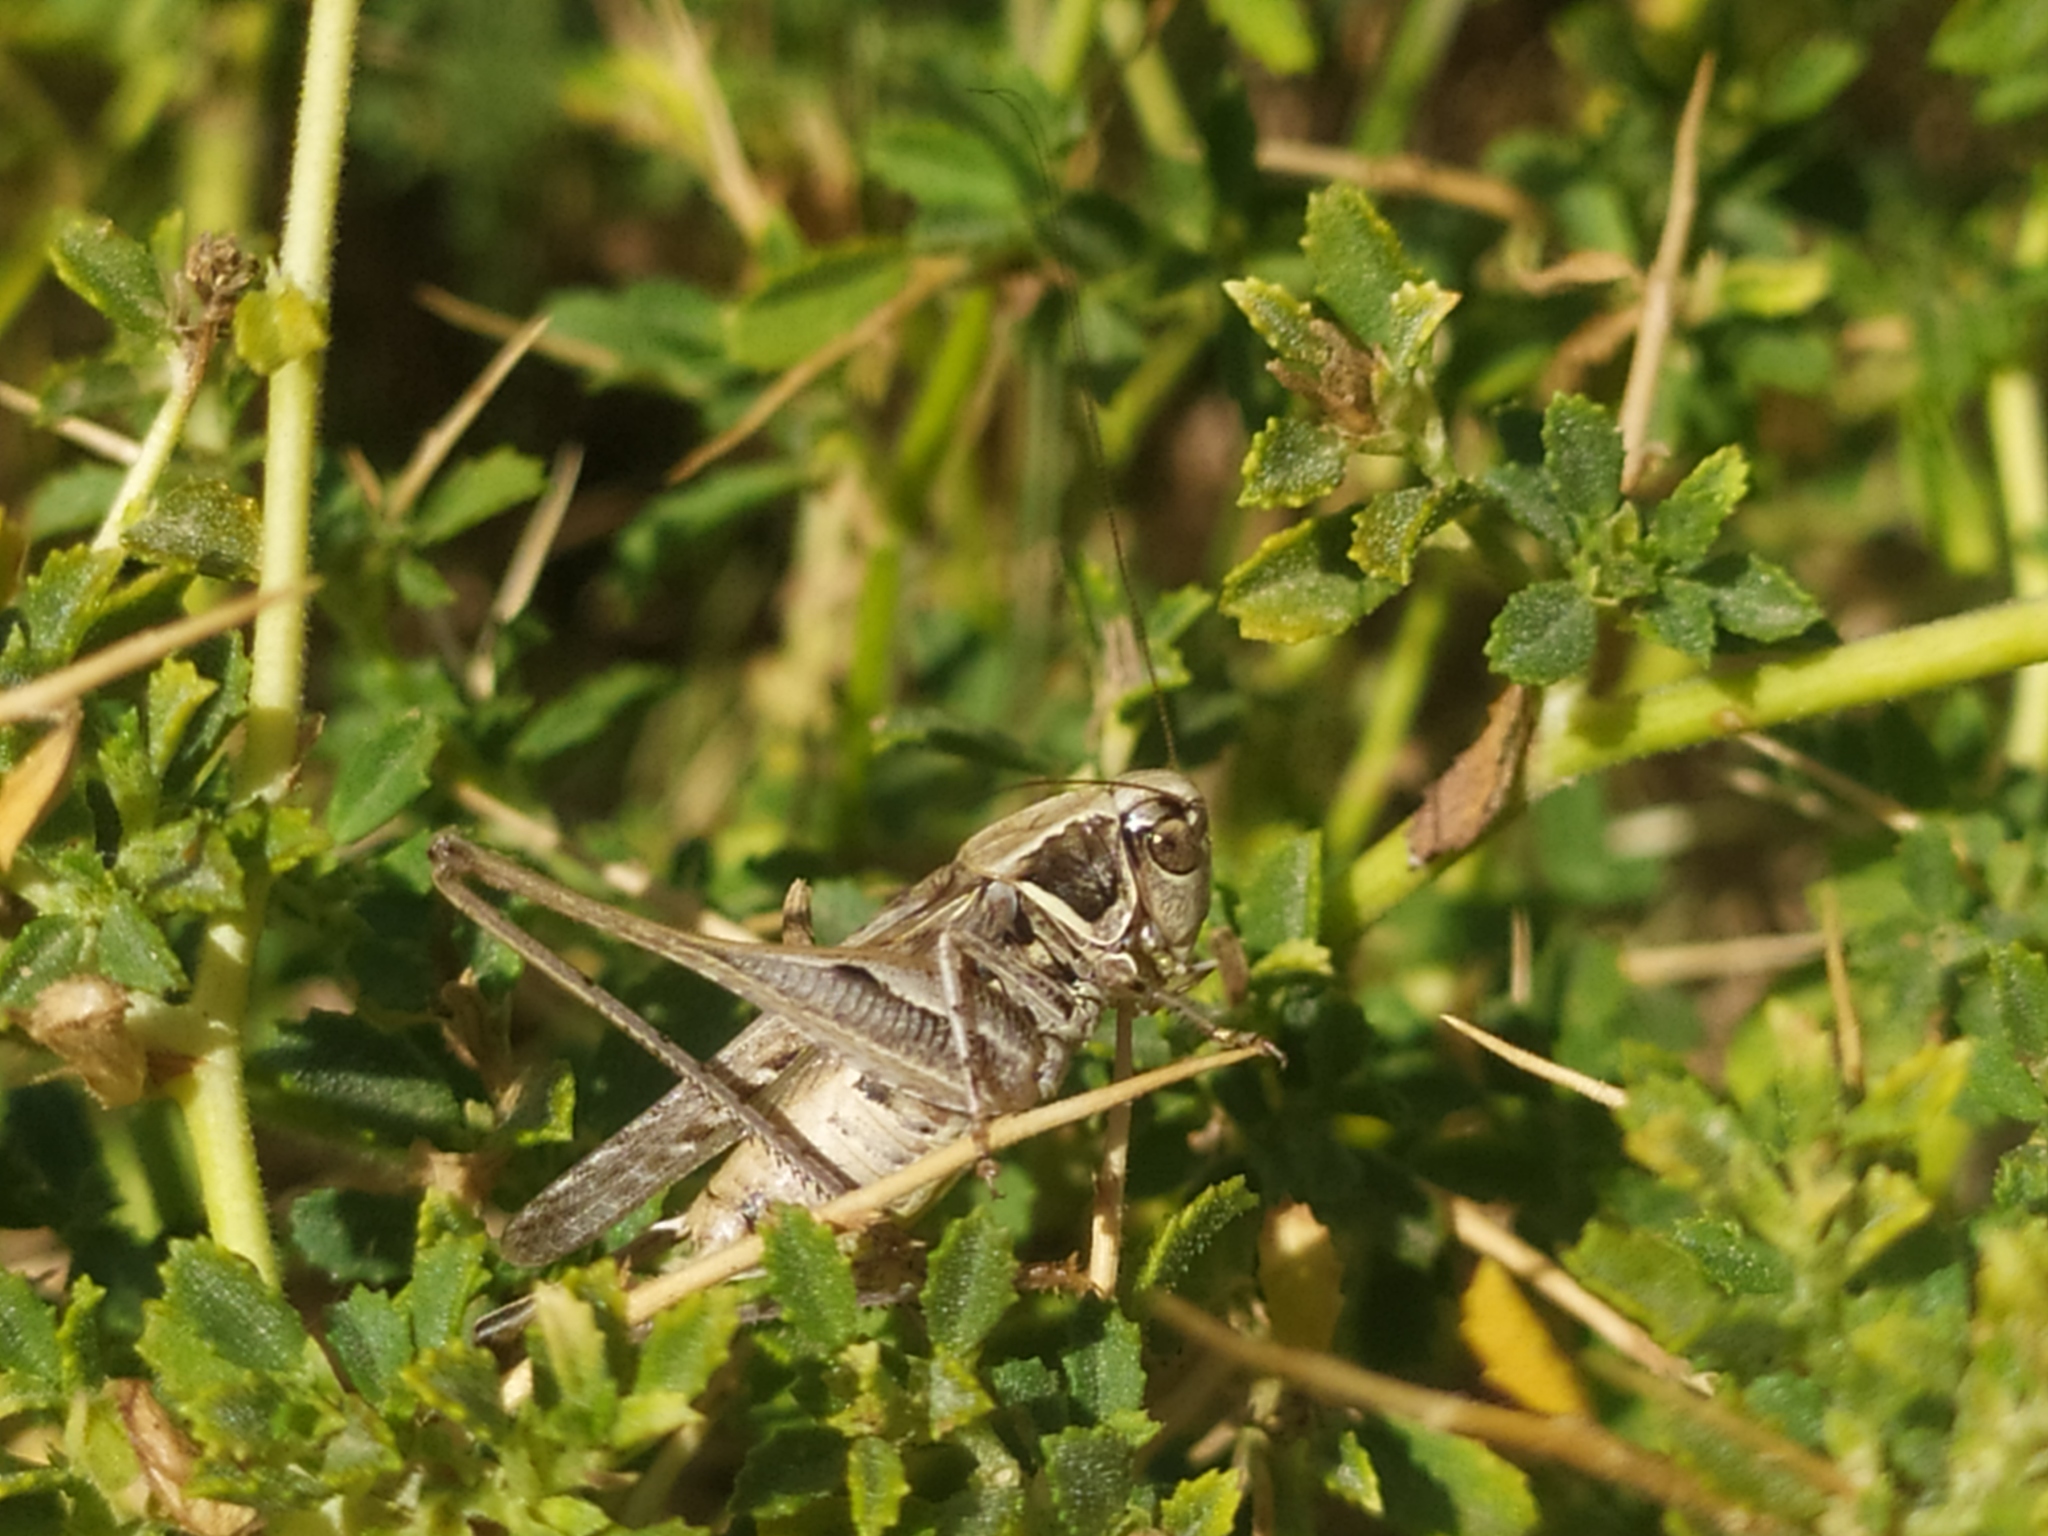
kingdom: Animalia
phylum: Arthropoda
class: Insecta
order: Orthoptera
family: Tettigoniidae
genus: Montana
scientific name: Montana stricta
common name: Italian bush-cricket
